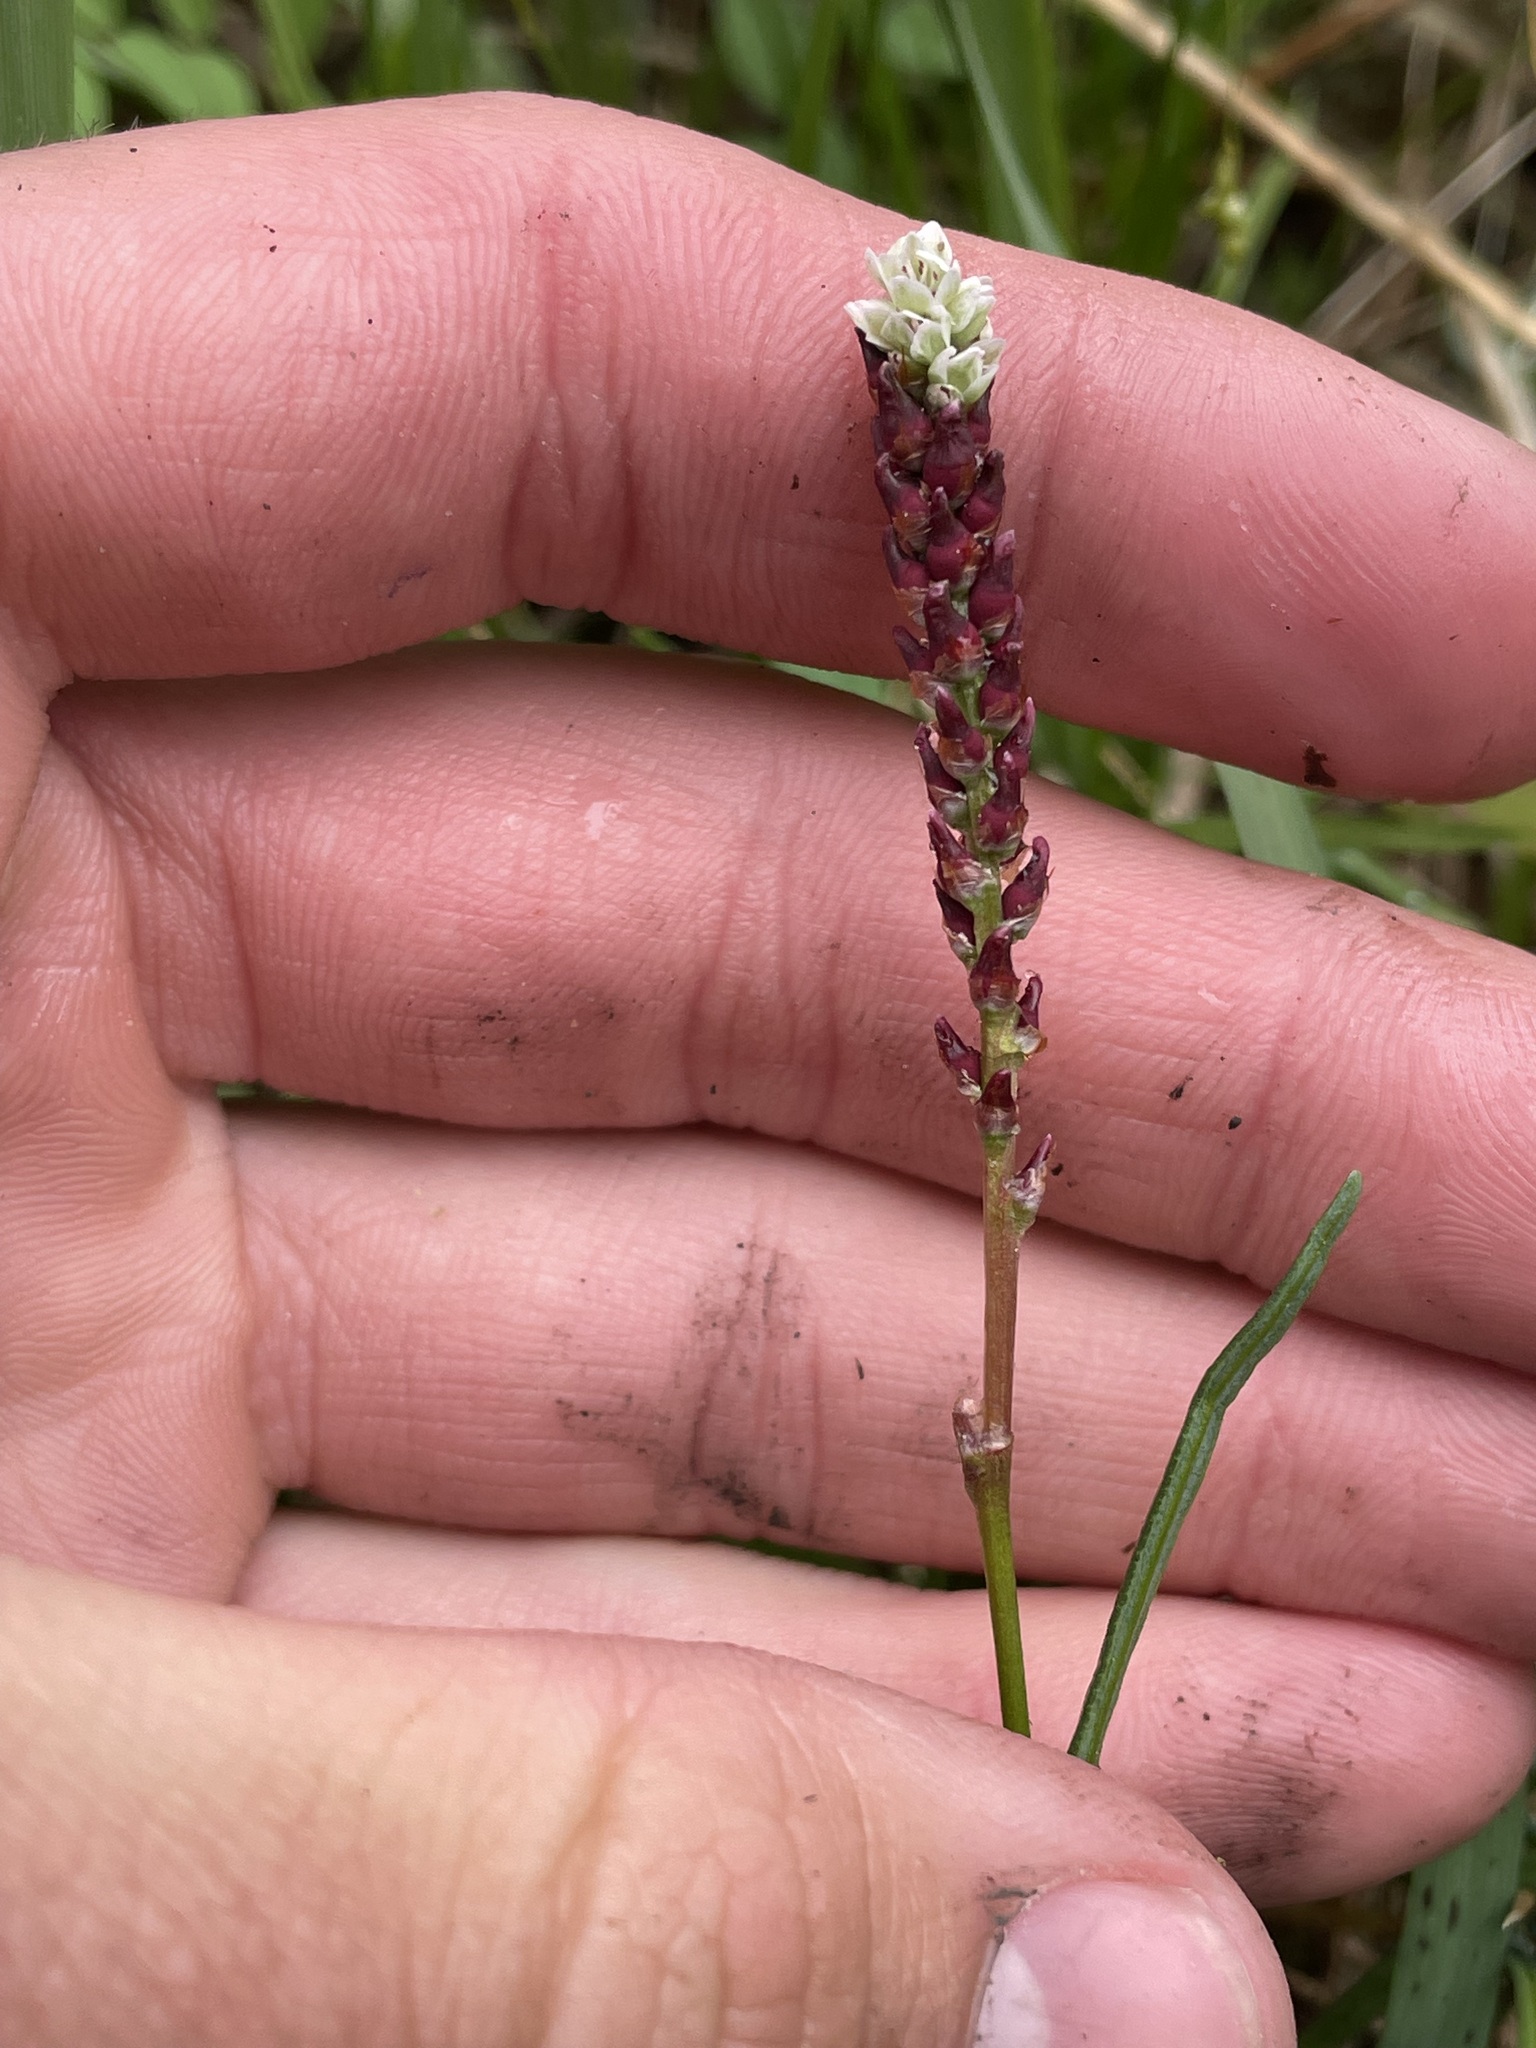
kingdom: Plantae
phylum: Tracheophyta
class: Magnoliopsida
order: Caryophyllales
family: Polygonaceae
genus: Bistorta
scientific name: Bistorta vivipara
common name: Alpine bistort
